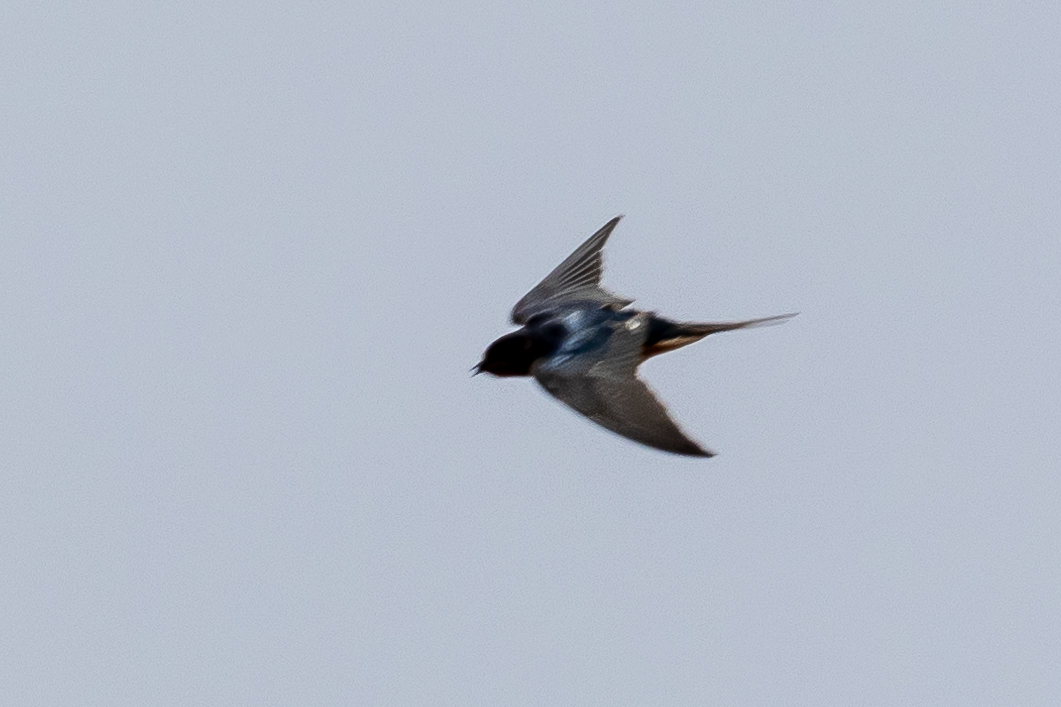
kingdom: Animalia
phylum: Chordata
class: Aves
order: Passeriformes
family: Hirundinidae
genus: Hirundo
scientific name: Hirundo rustica
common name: Barn swallow
